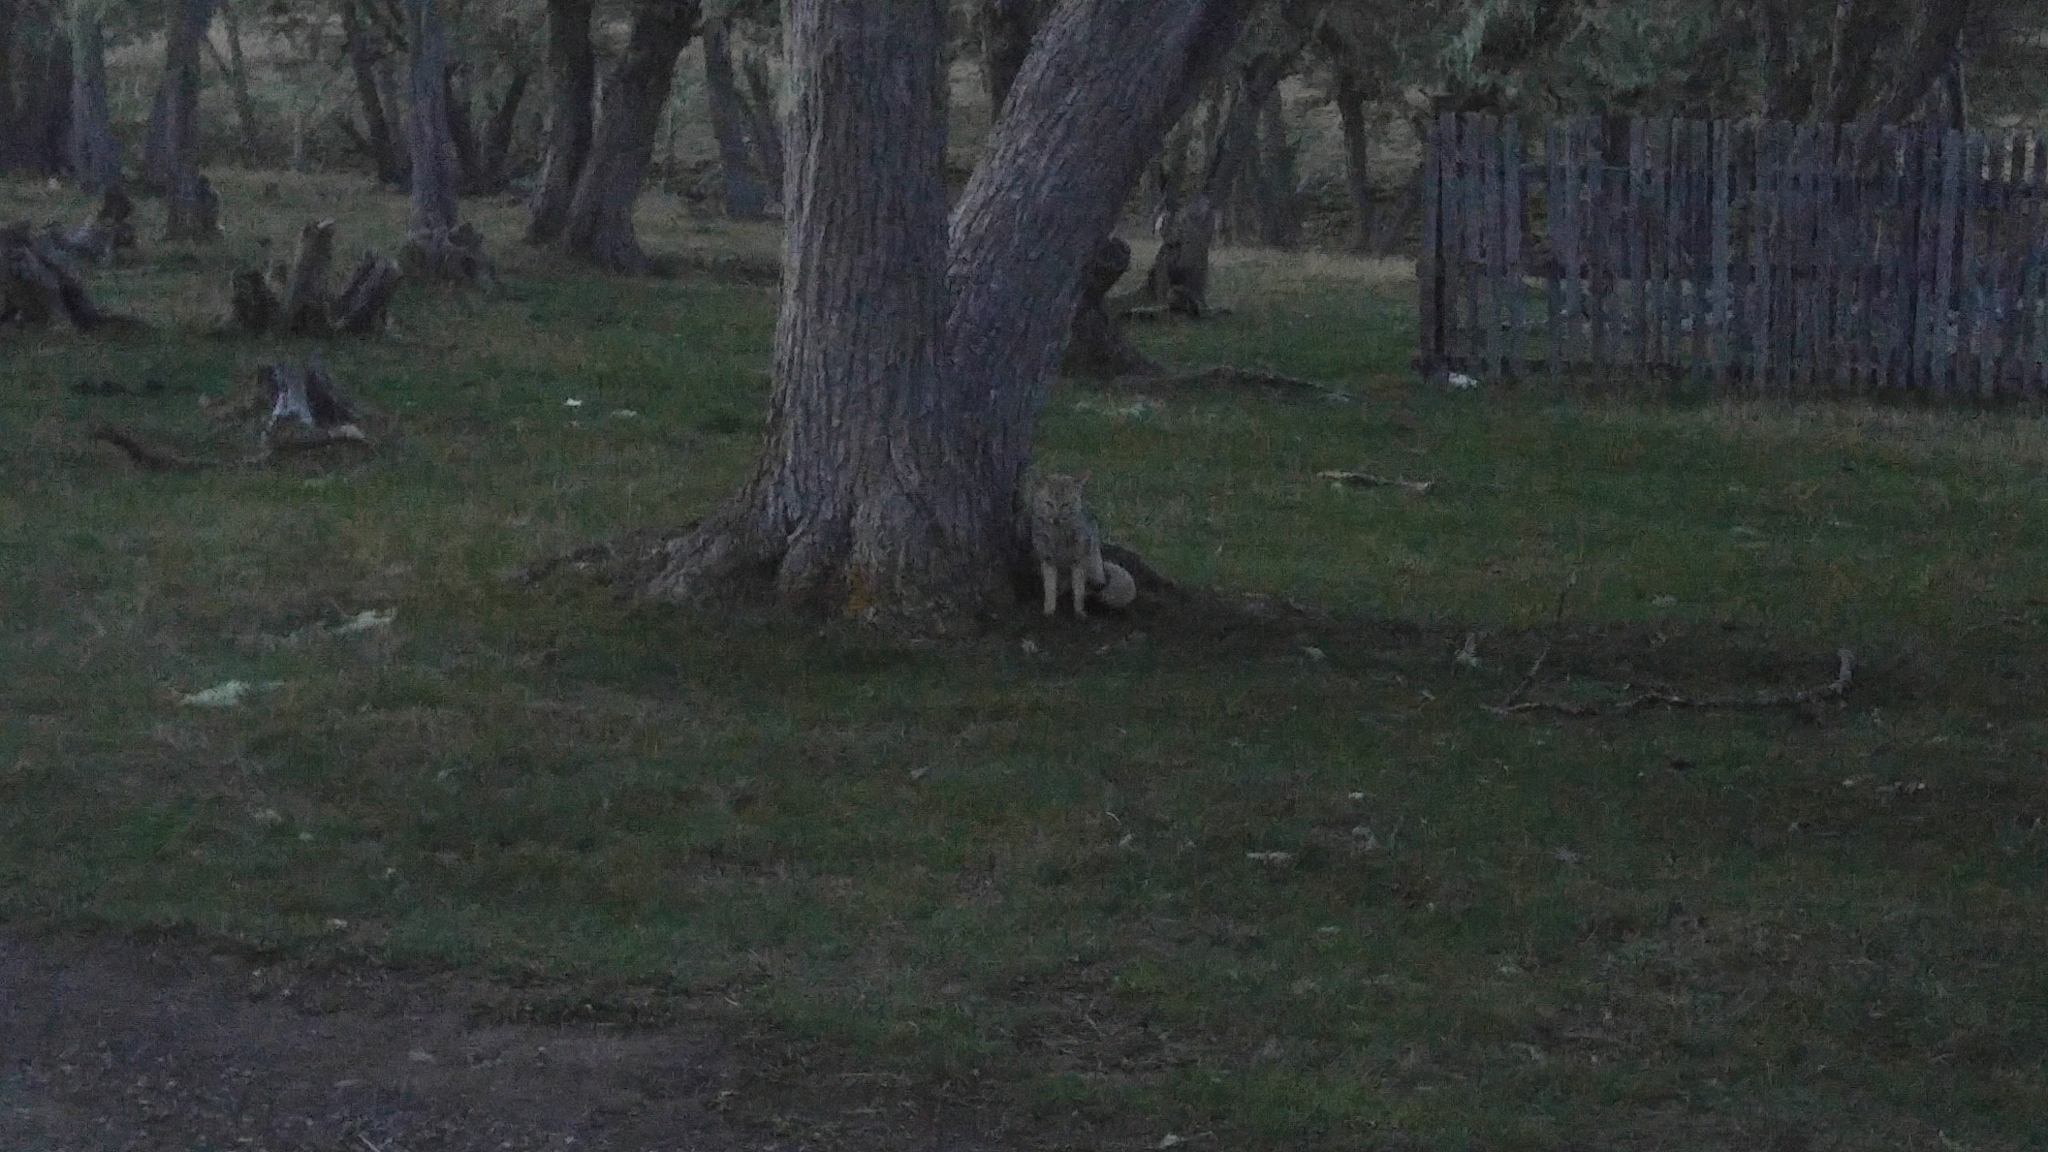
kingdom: Animalia
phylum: Chordata
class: Mammalia
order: Carnivora
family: Canidae
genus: Lycalopex
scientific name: Lycalopex gymnocercus
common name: Pampas fox
